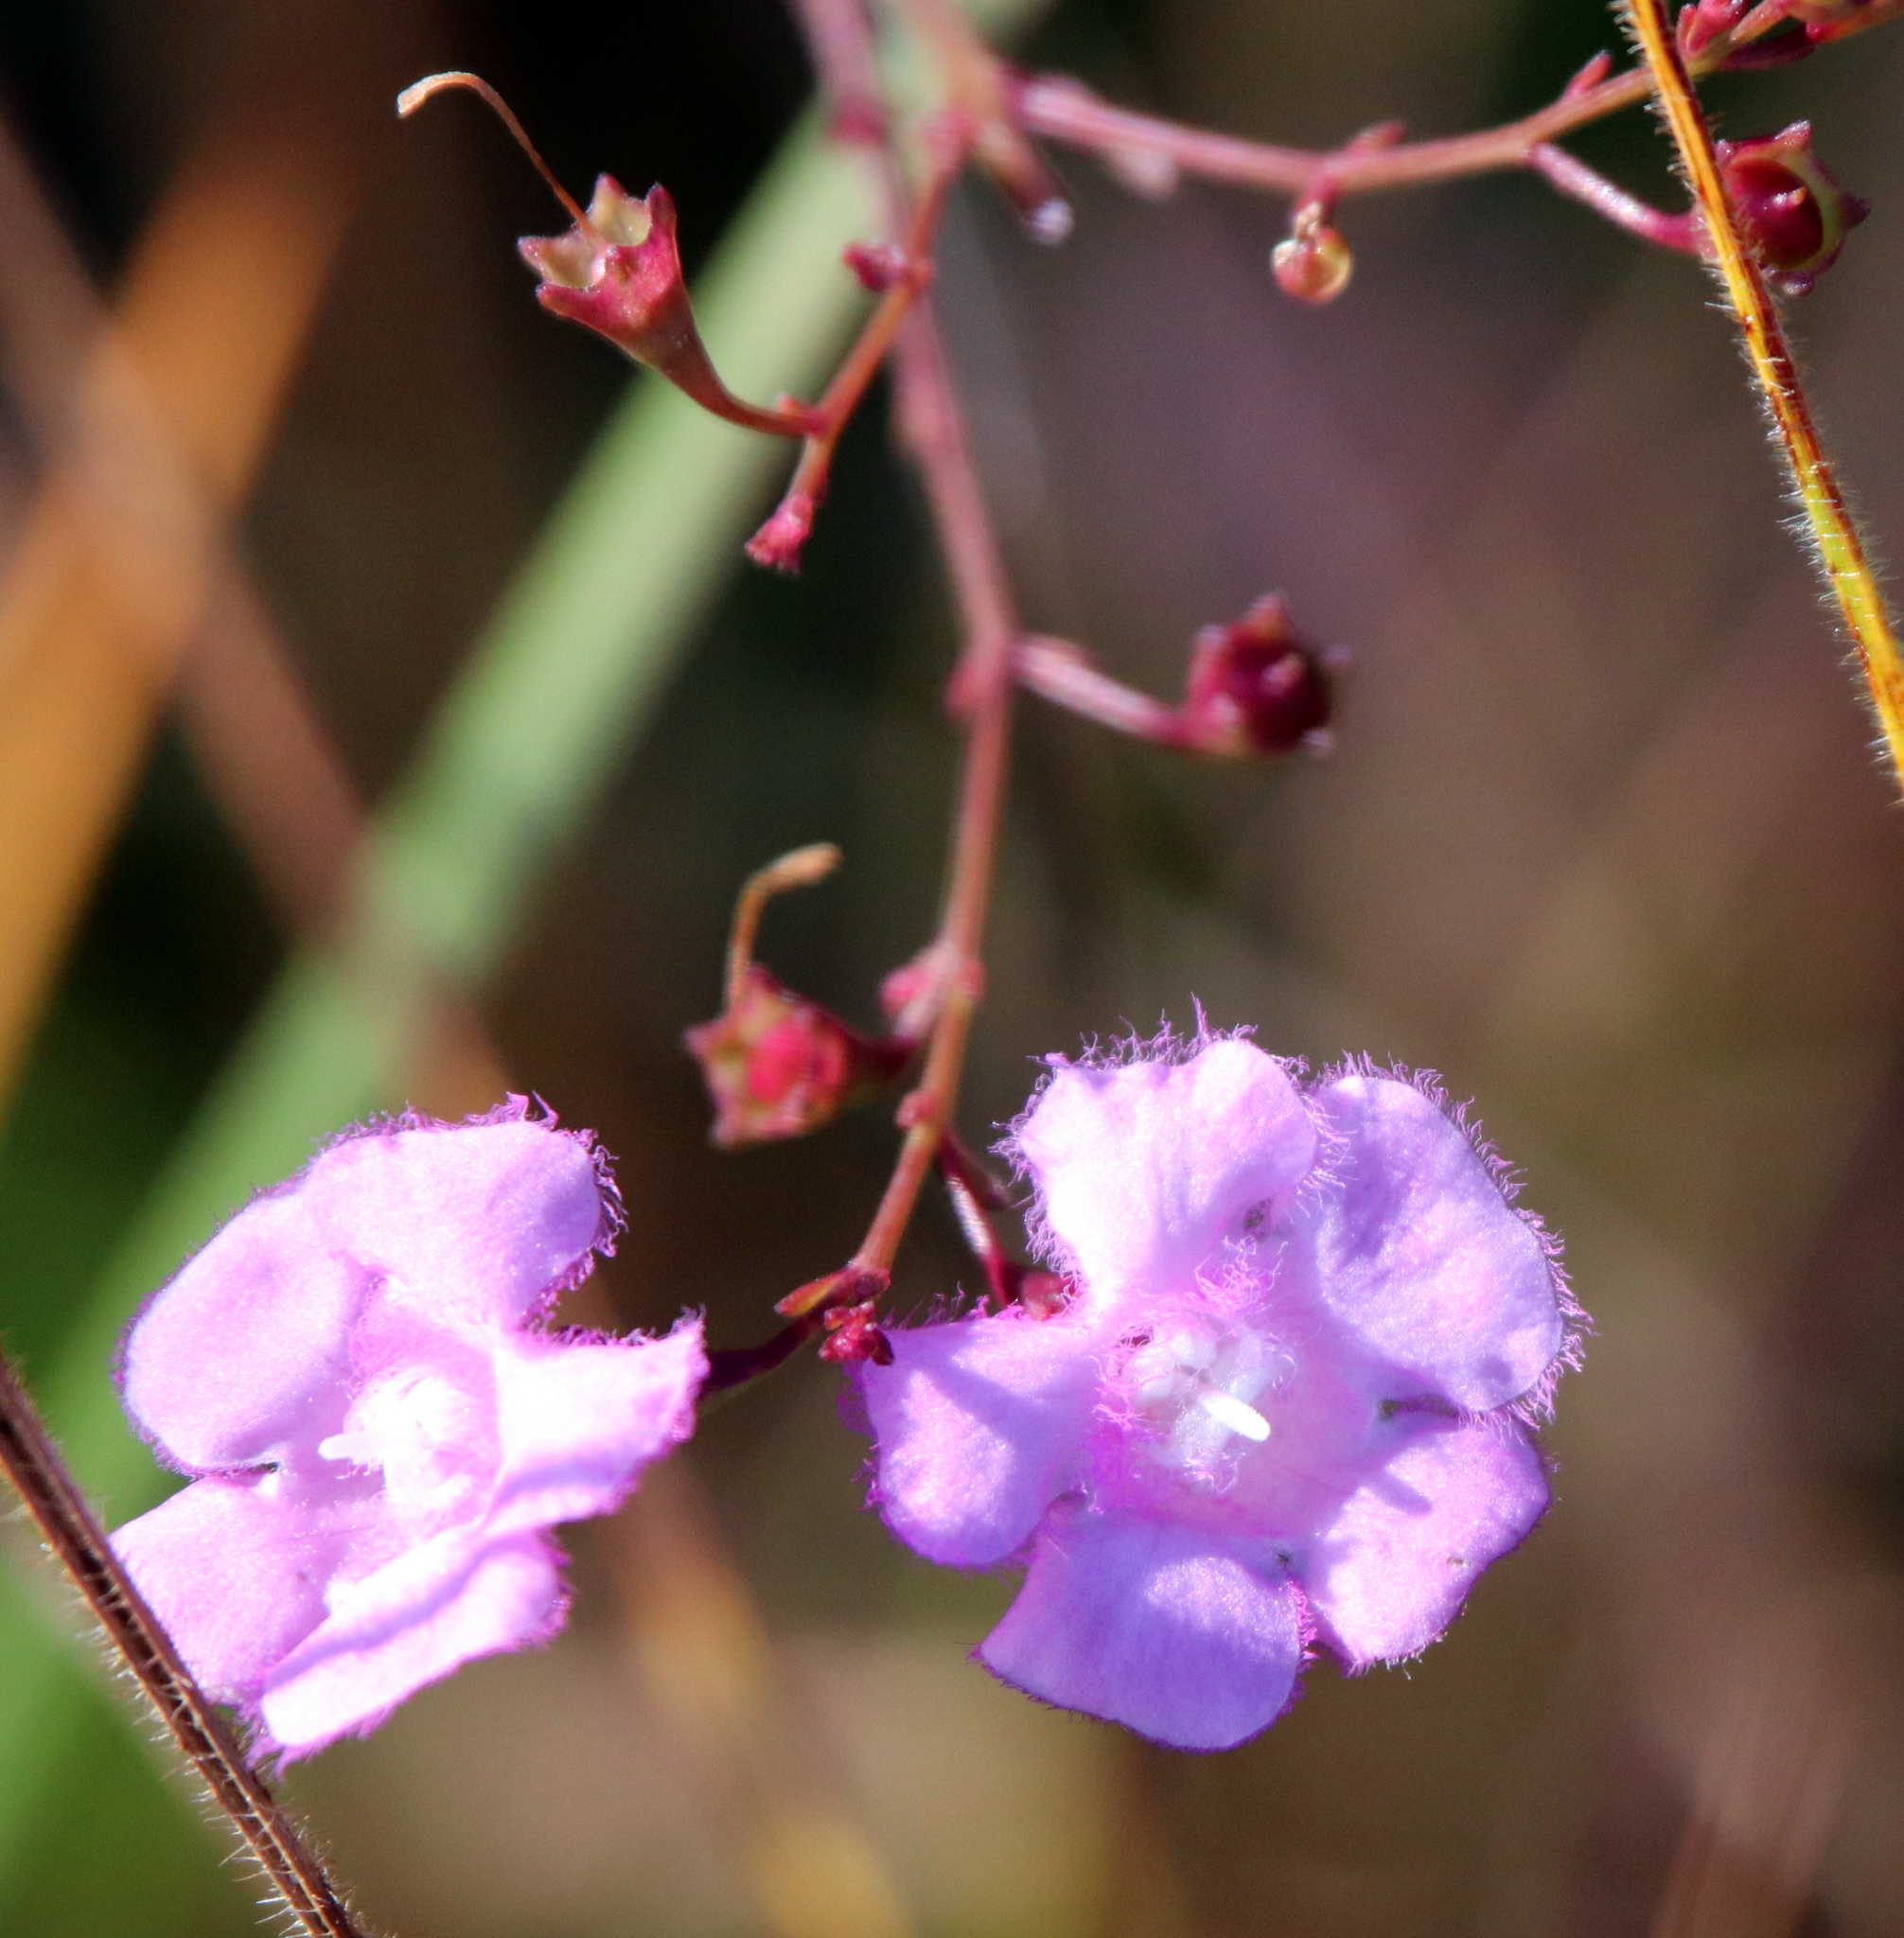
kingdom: Plantae
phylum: Tracheophyta
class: Magnoliopsida
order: Lamiales
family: Orobanchaceae
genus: Agalinis
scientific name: Agalinis aphylla
